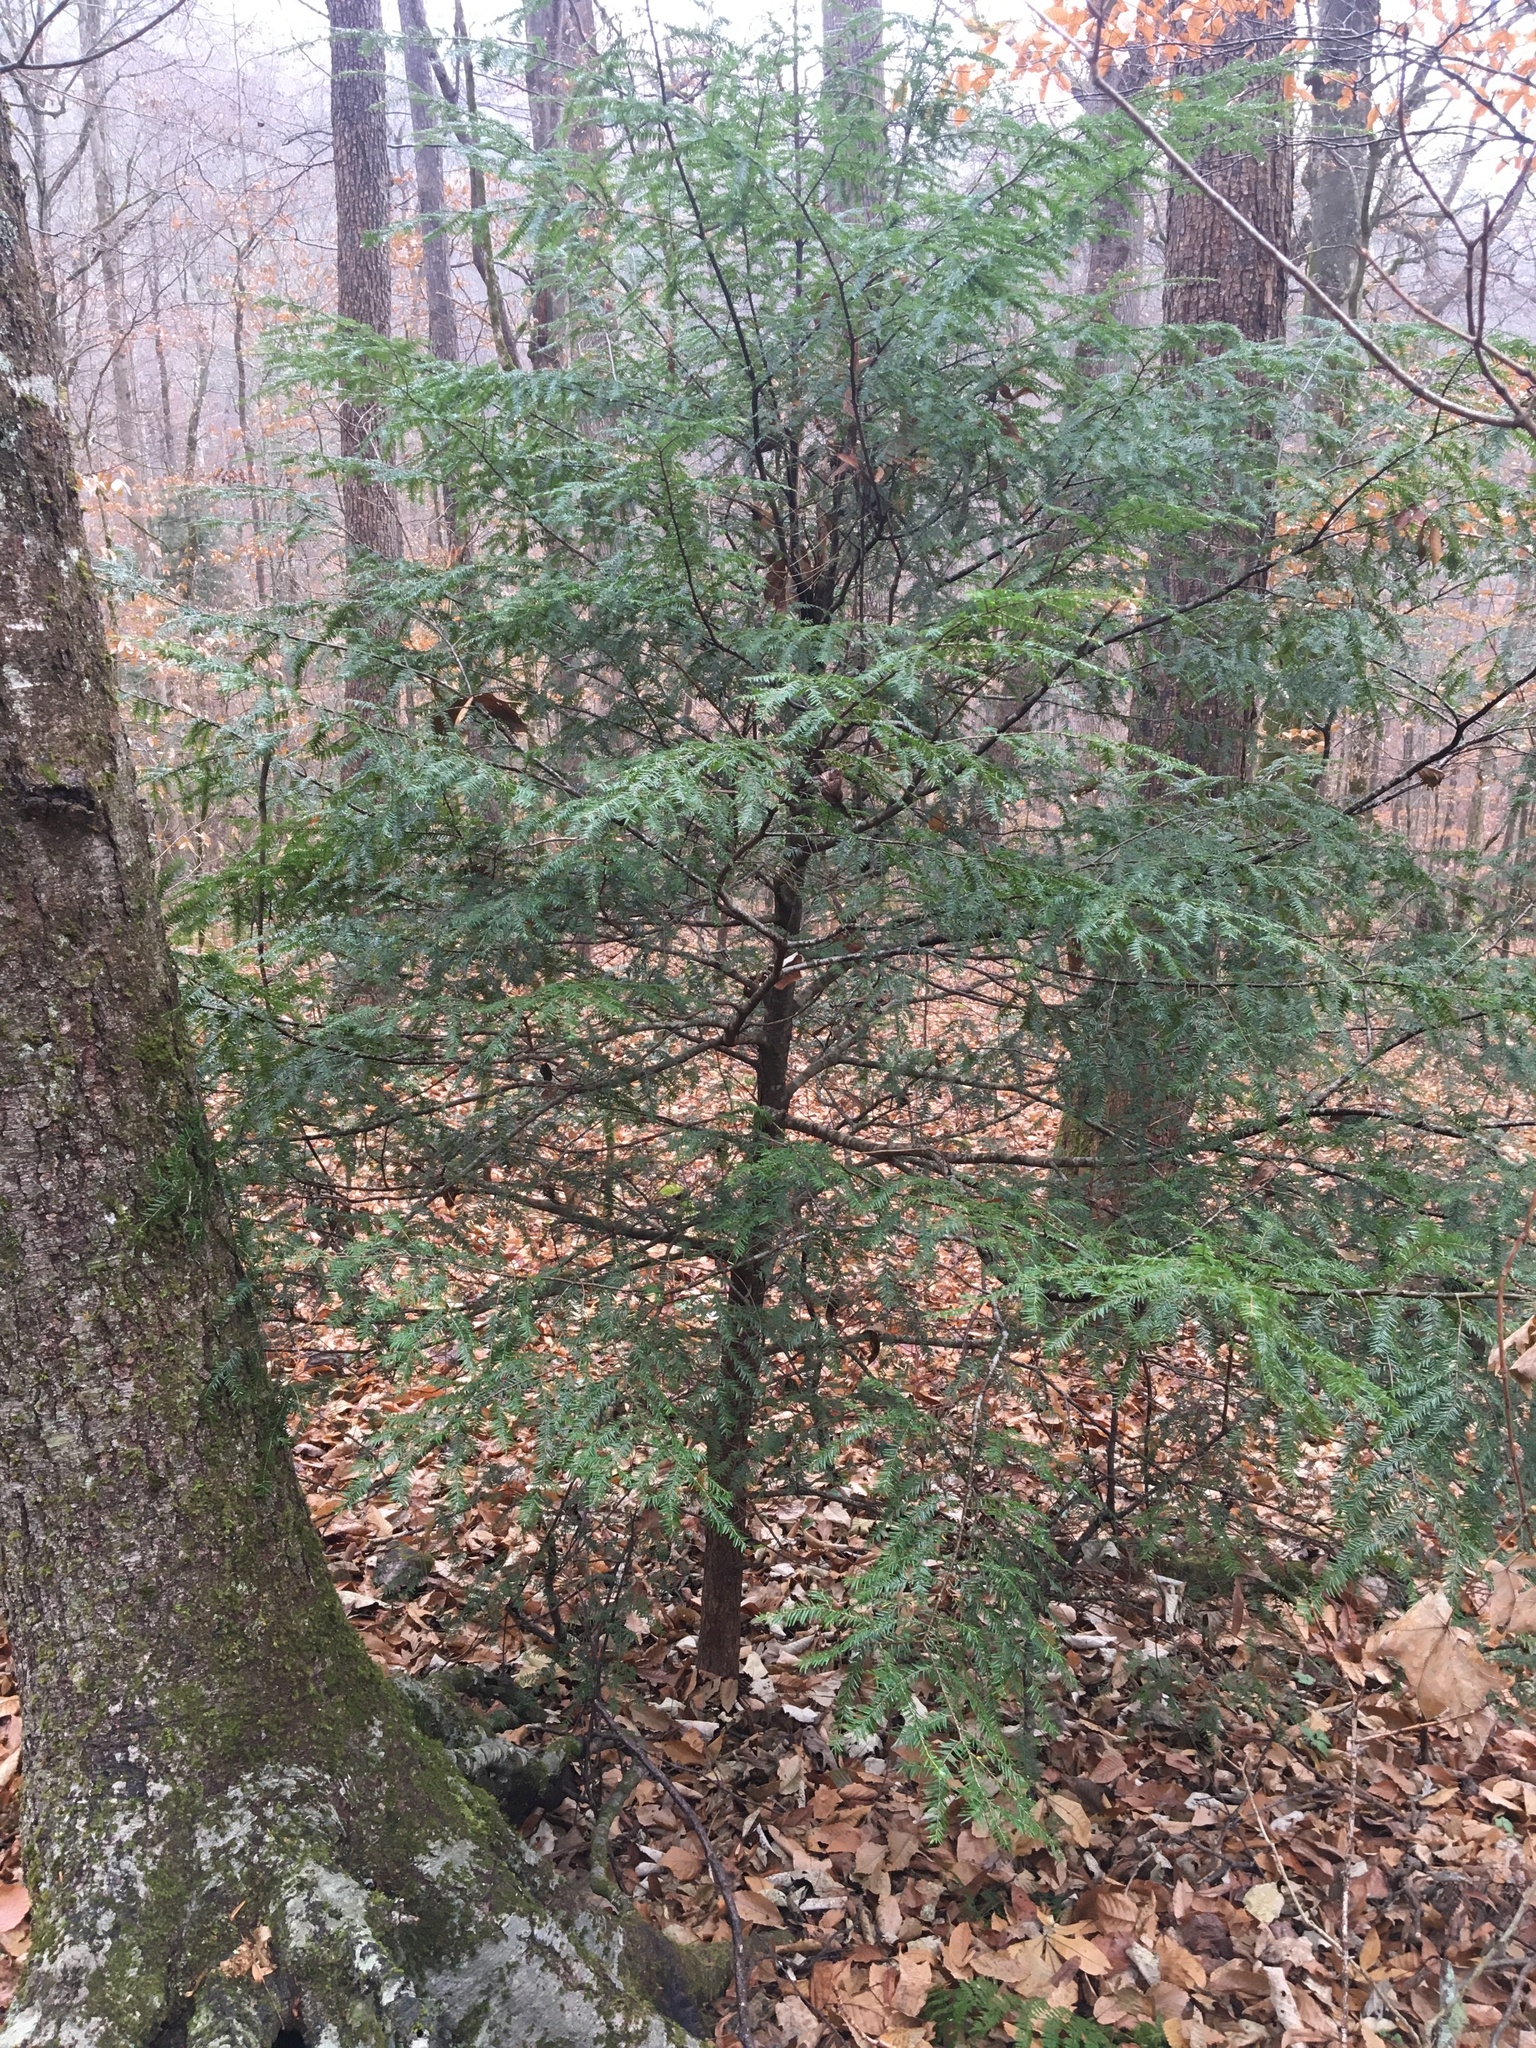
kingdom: Plantae
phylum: Tracheophyta
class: Pinopsida
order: Pinales
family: Pinaceae
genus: Tsuga
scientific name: Tsuga canadensis
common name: Eastern hemlock
